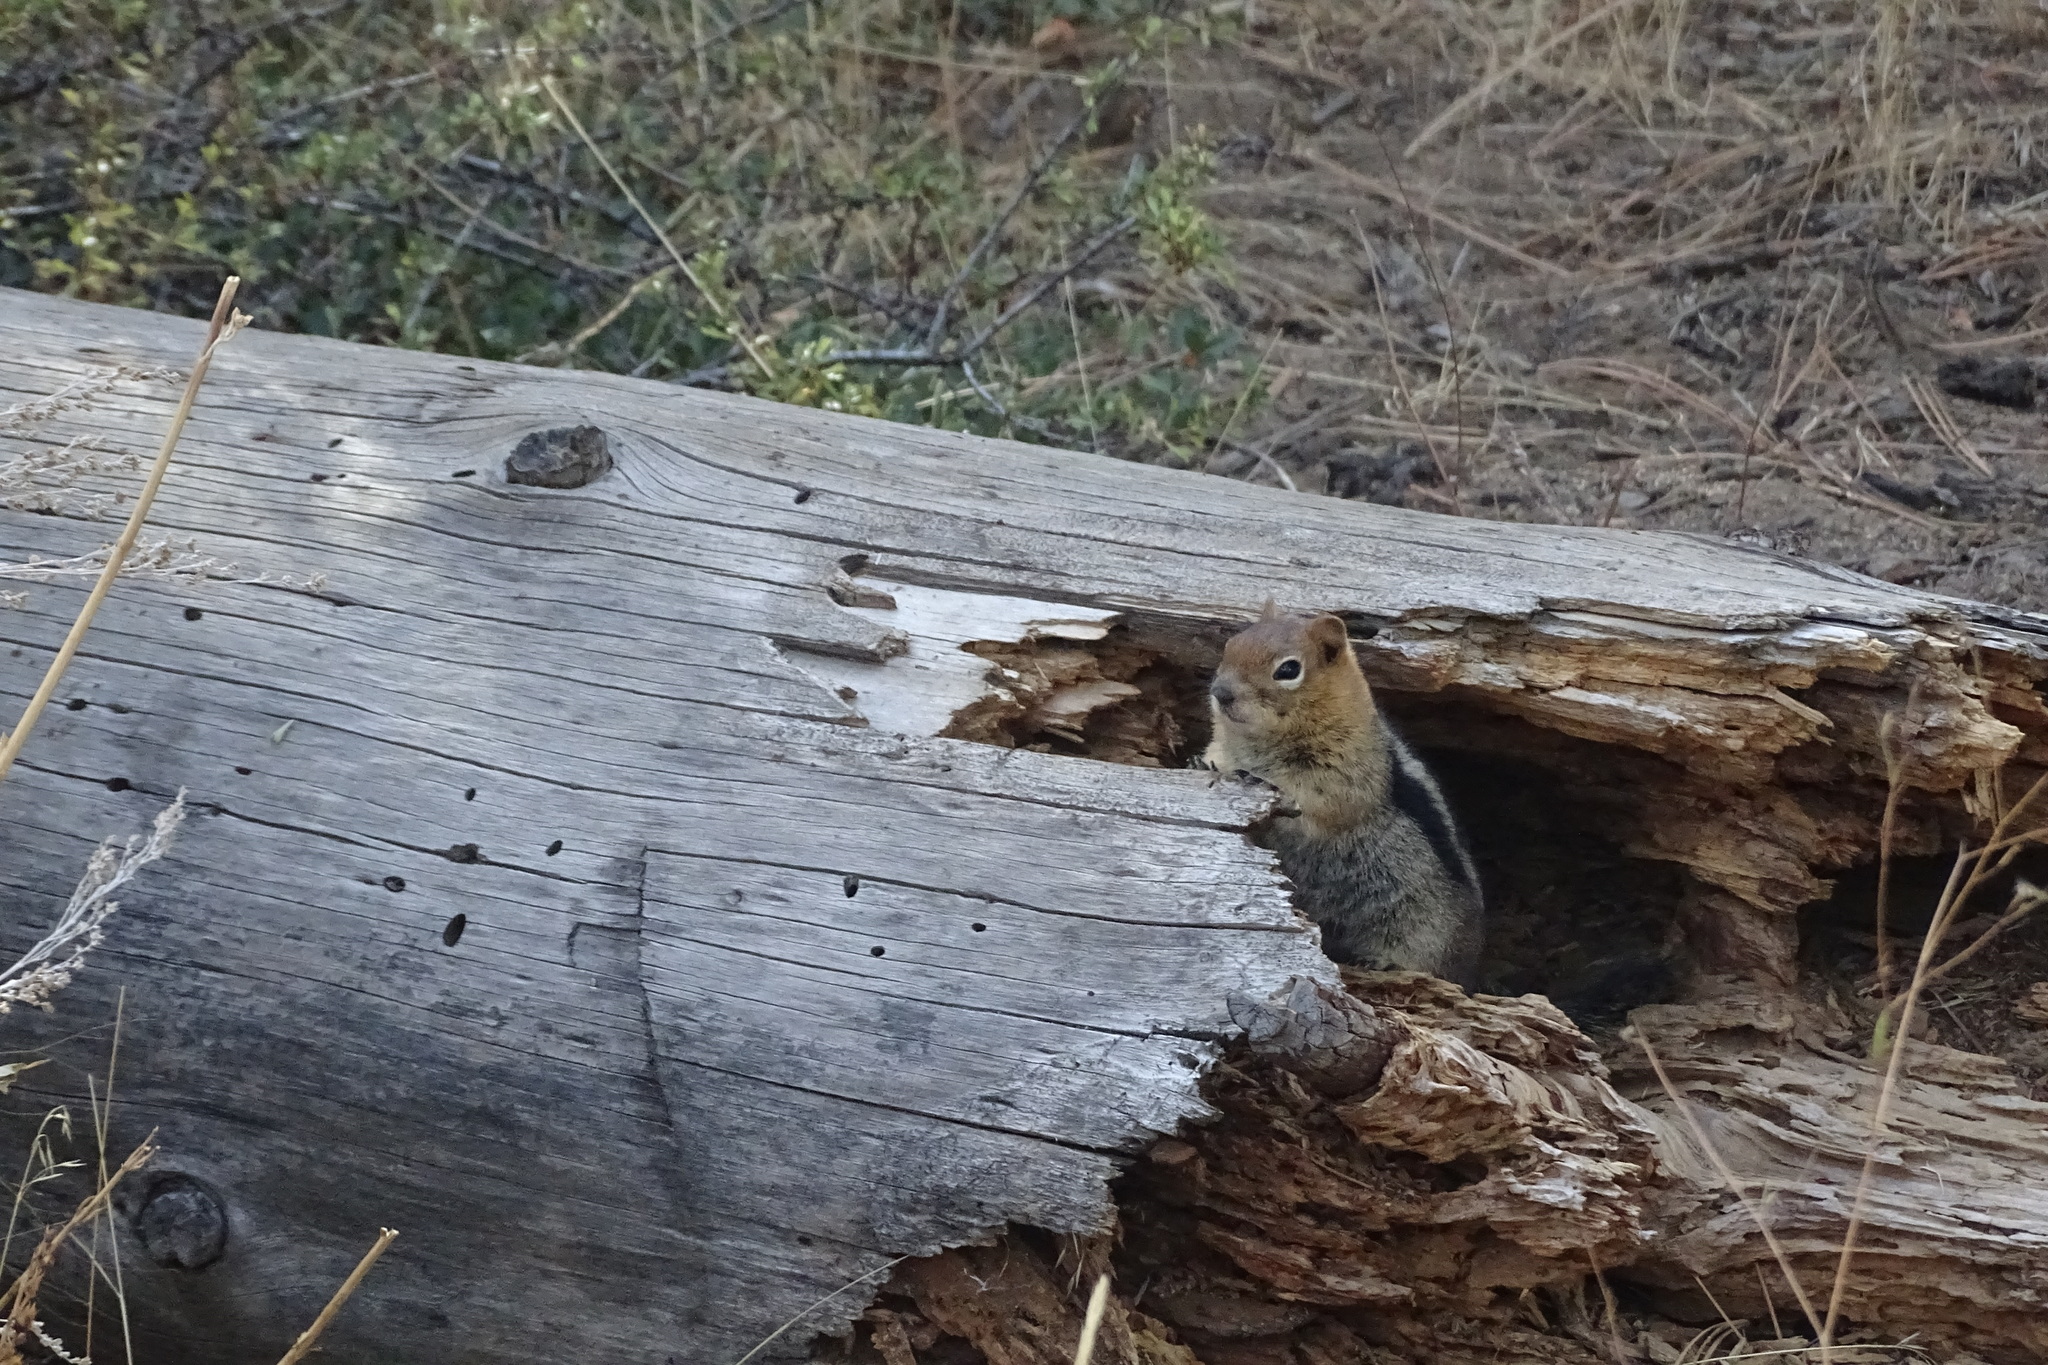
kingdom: Animalia
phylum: Chordata
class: Mammalia
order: Rodentia
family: Sciuridae
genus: Callospermophilus
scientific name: Callospermophilus lateralis
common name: Golden-mantled ground squirrel
